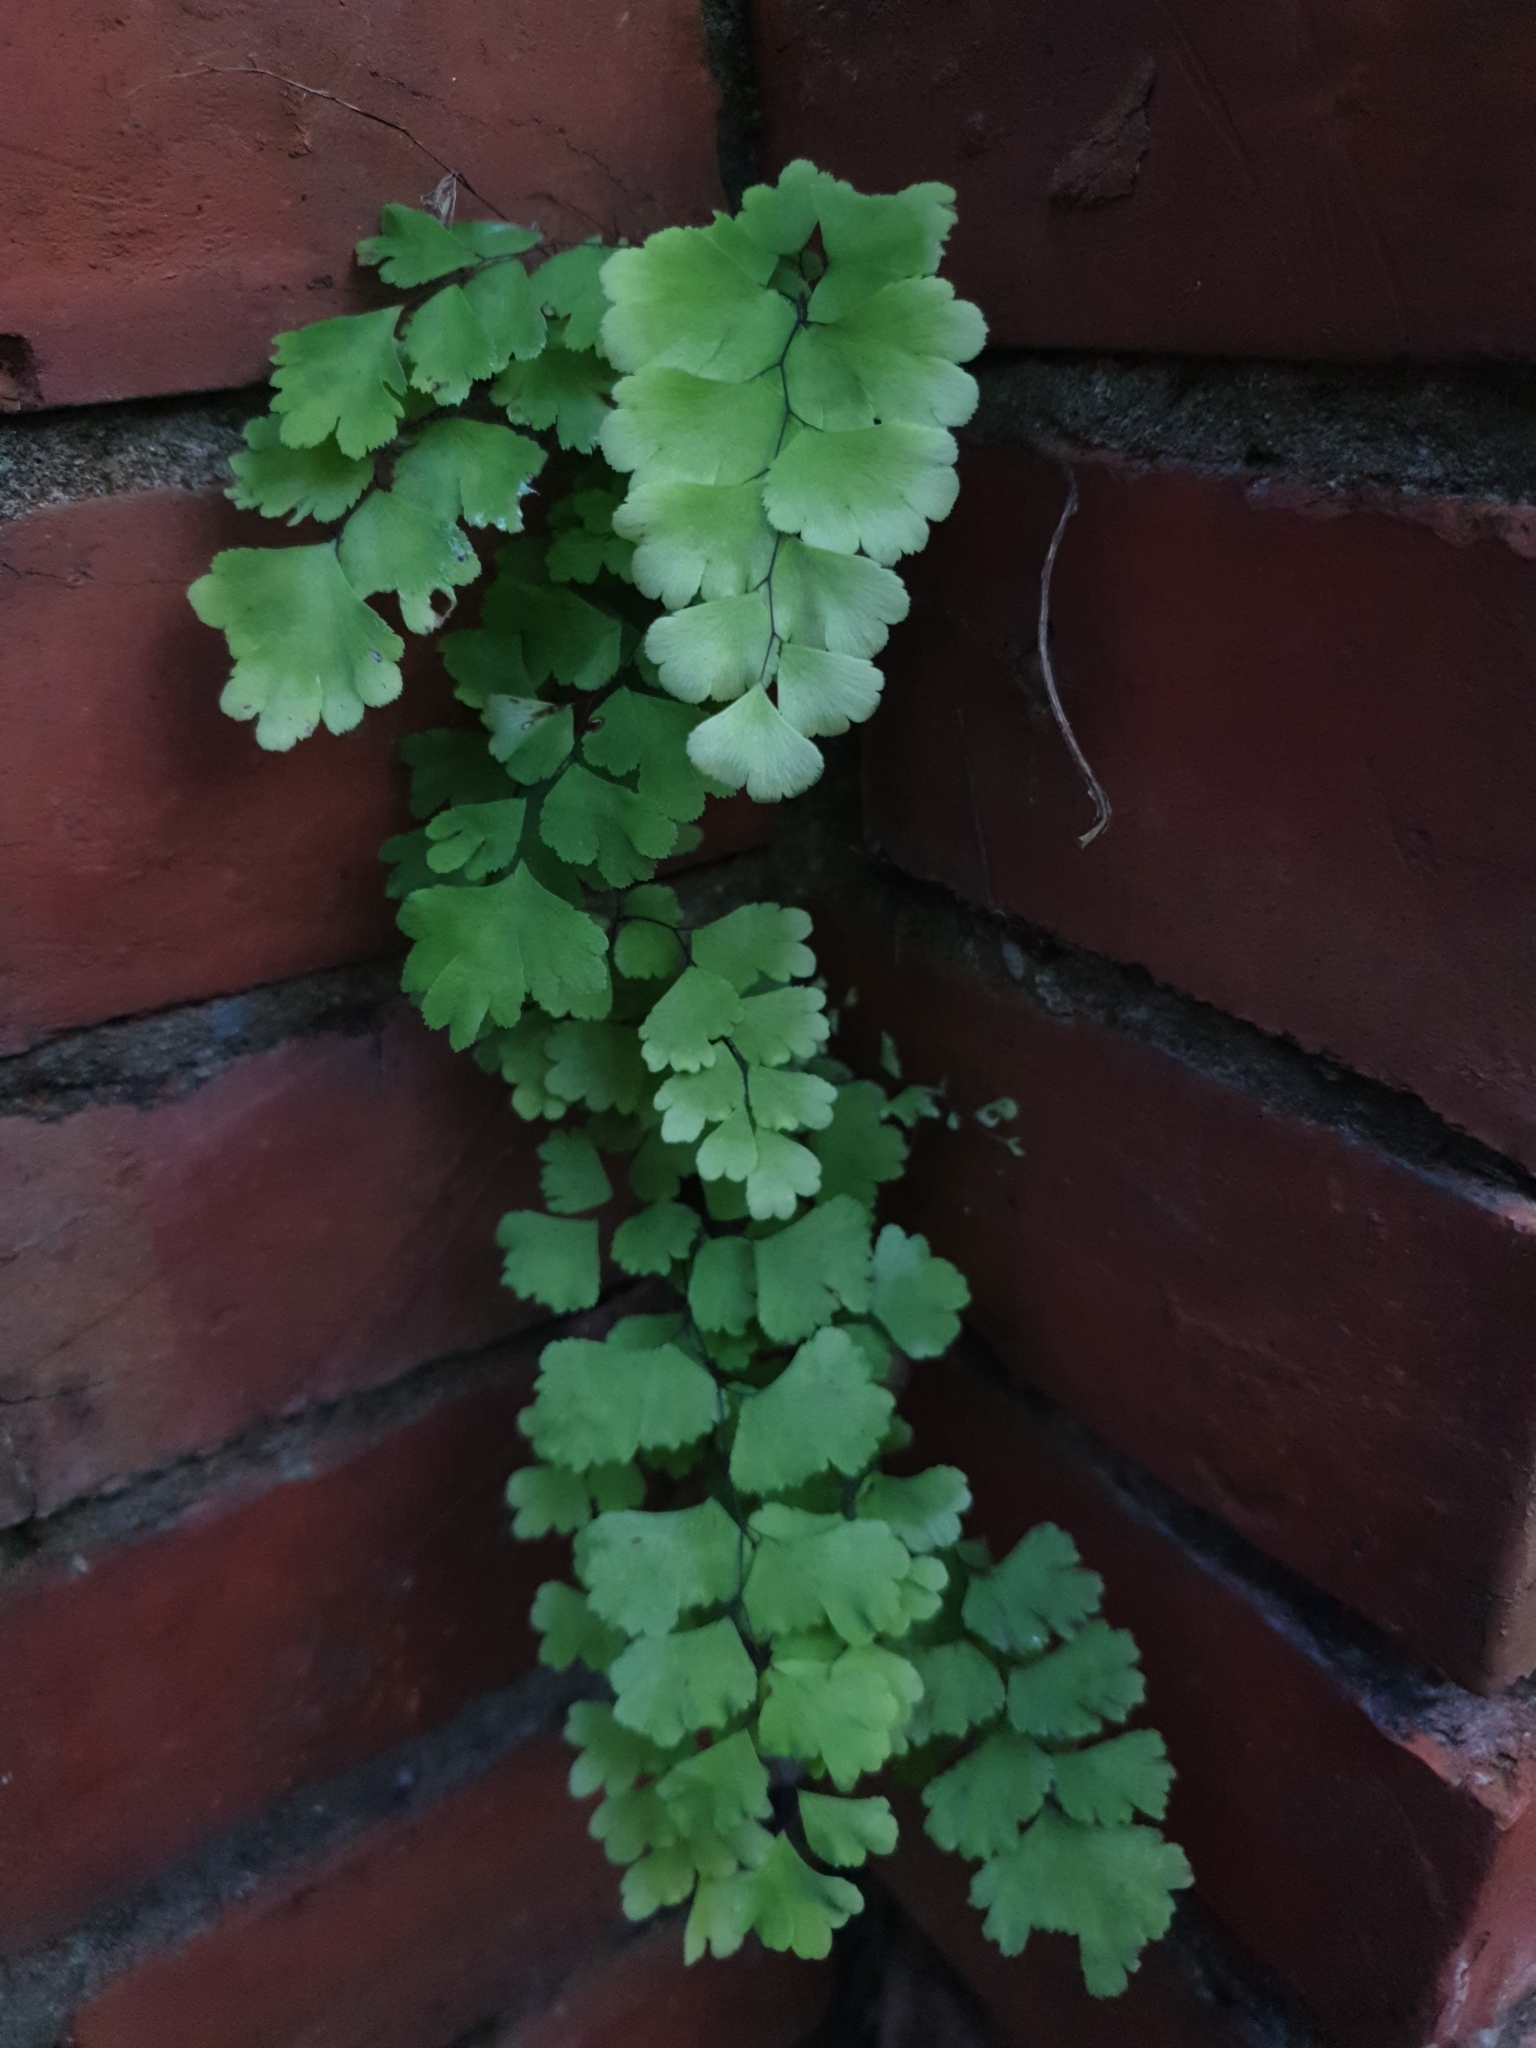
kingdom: Plantae
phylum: Tracheophyta
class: Polypodiopsida
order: Polypodiales
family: Pteridaceae
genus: Adiantum
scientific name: Adiantum capillus-veneris
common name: Maidenhair fern
